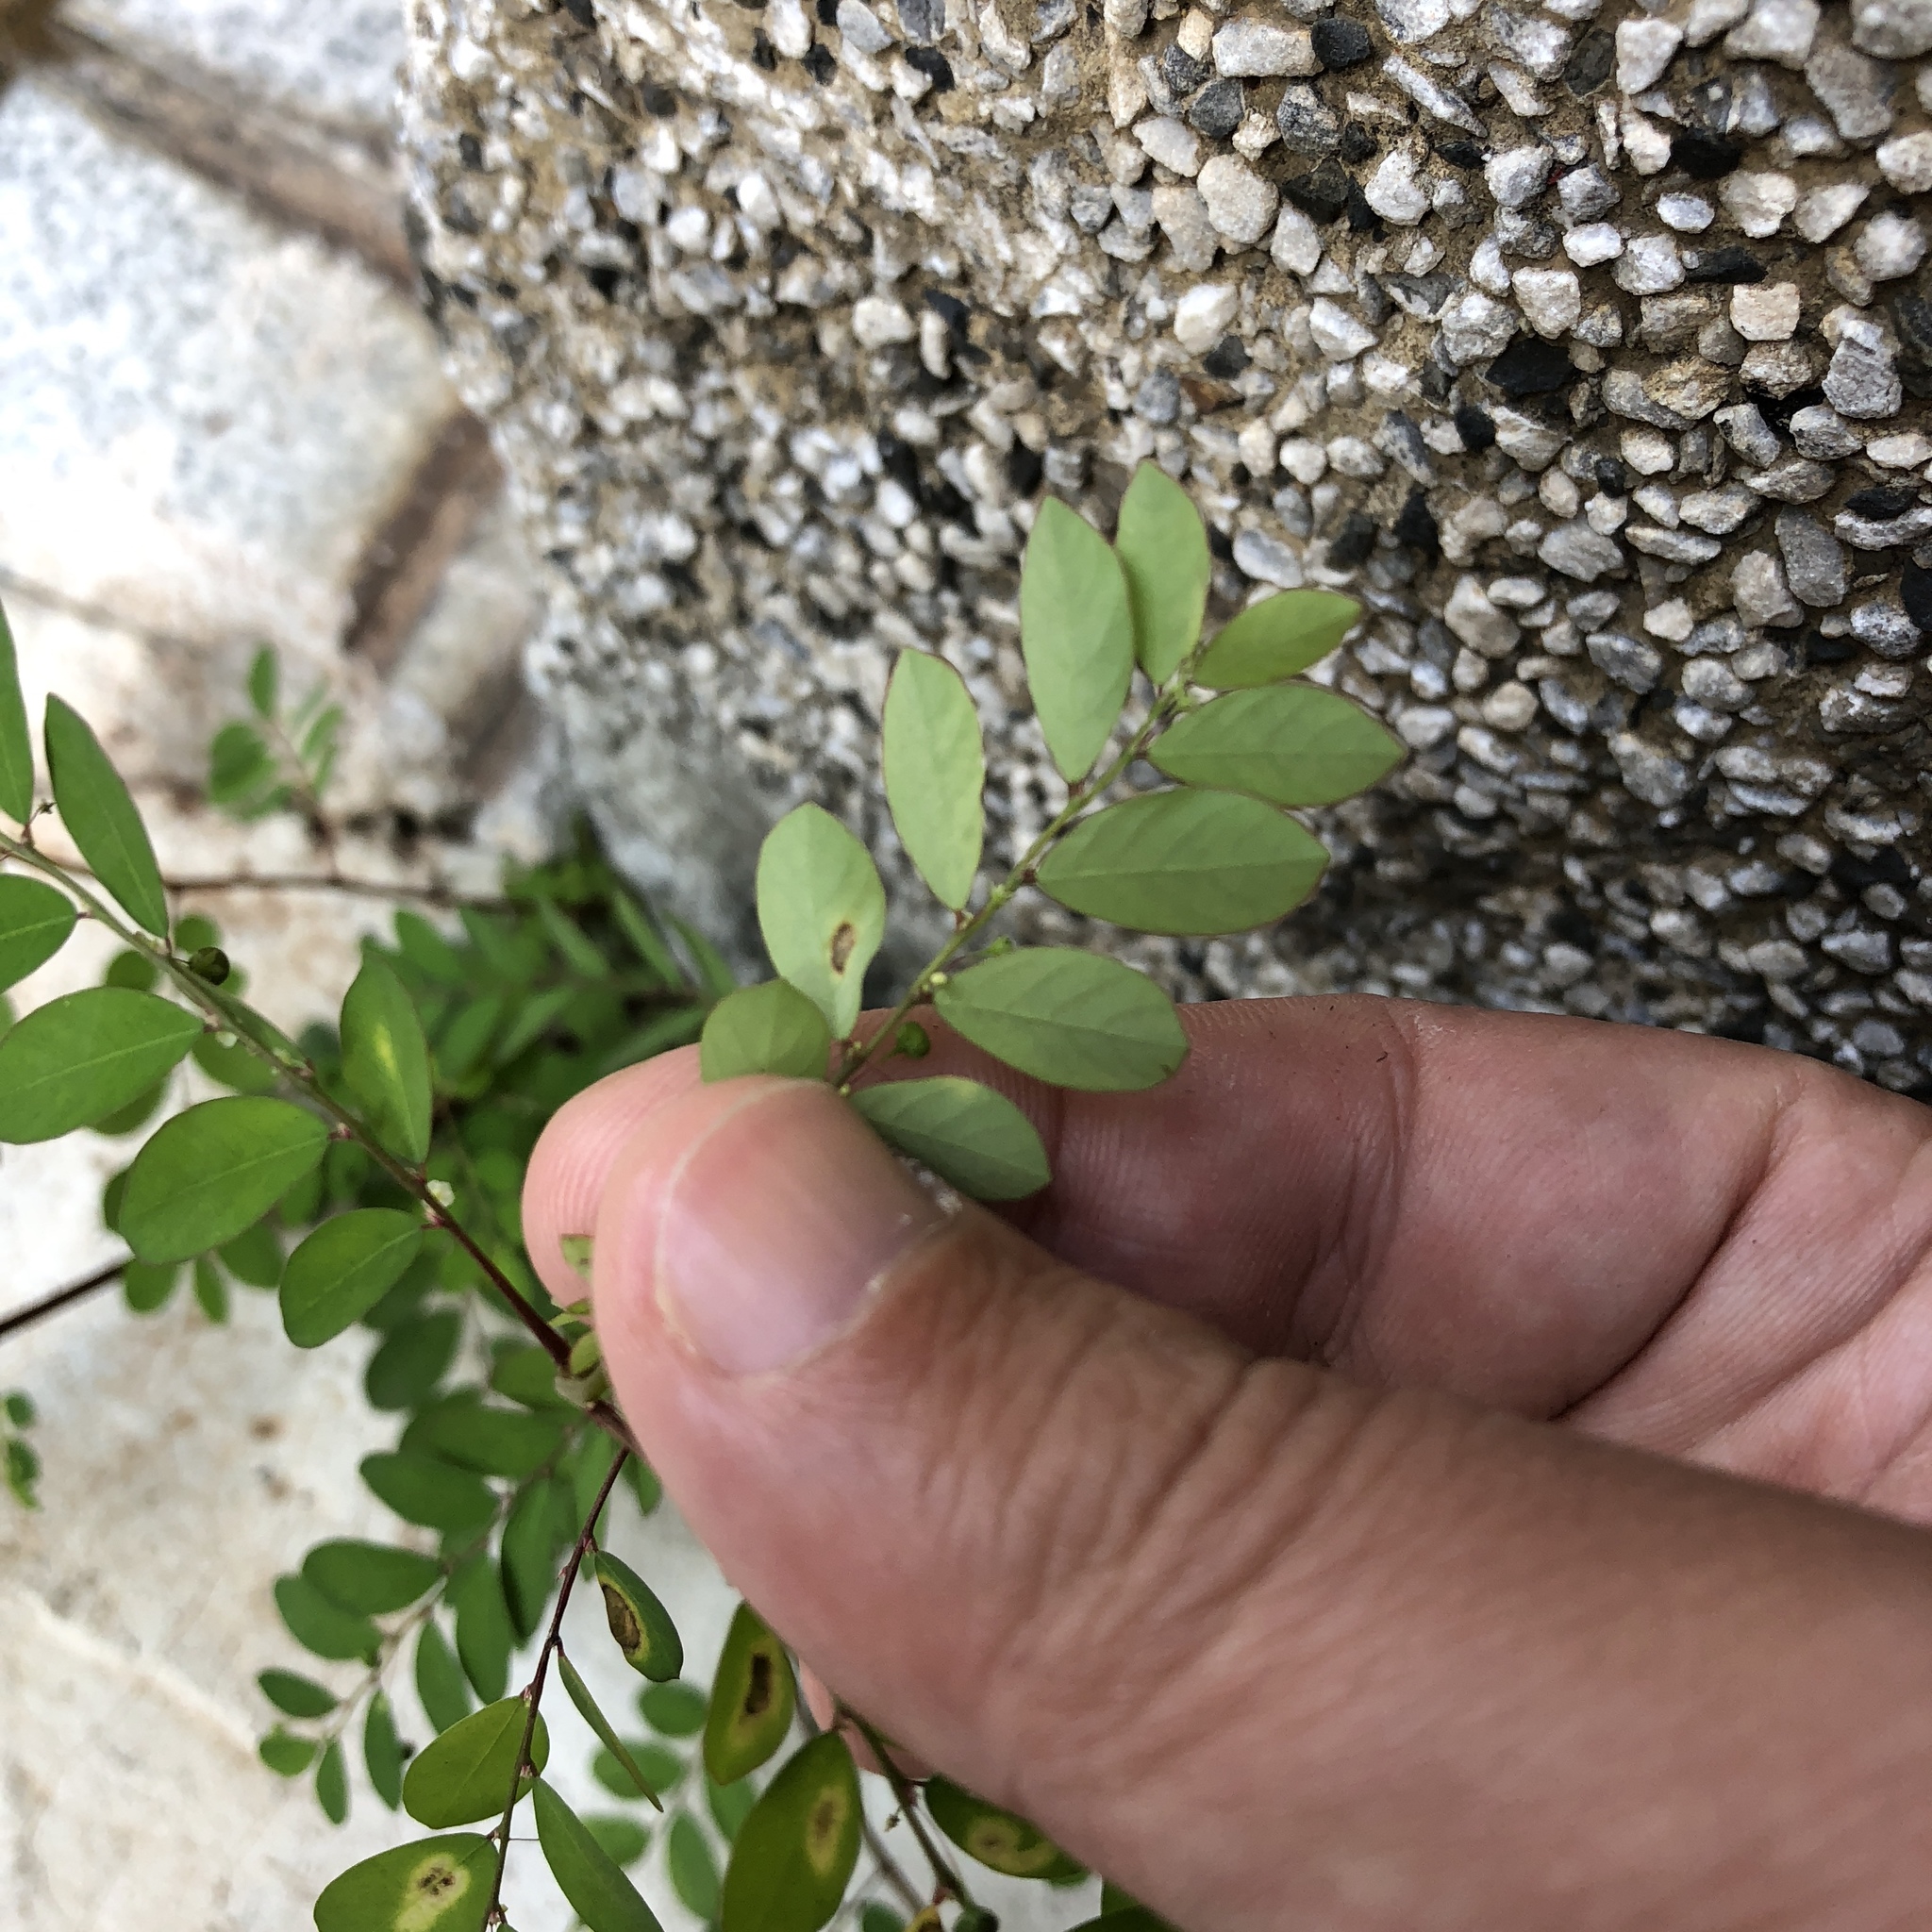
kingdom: Plantae
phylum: Tracheophyta
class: Magnoliopsida
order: Malpighiales
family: Phyllanthaceae
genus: Phyllanthus
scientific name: Phyllanthus tenellus
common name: Mascarene island leaf-flower
